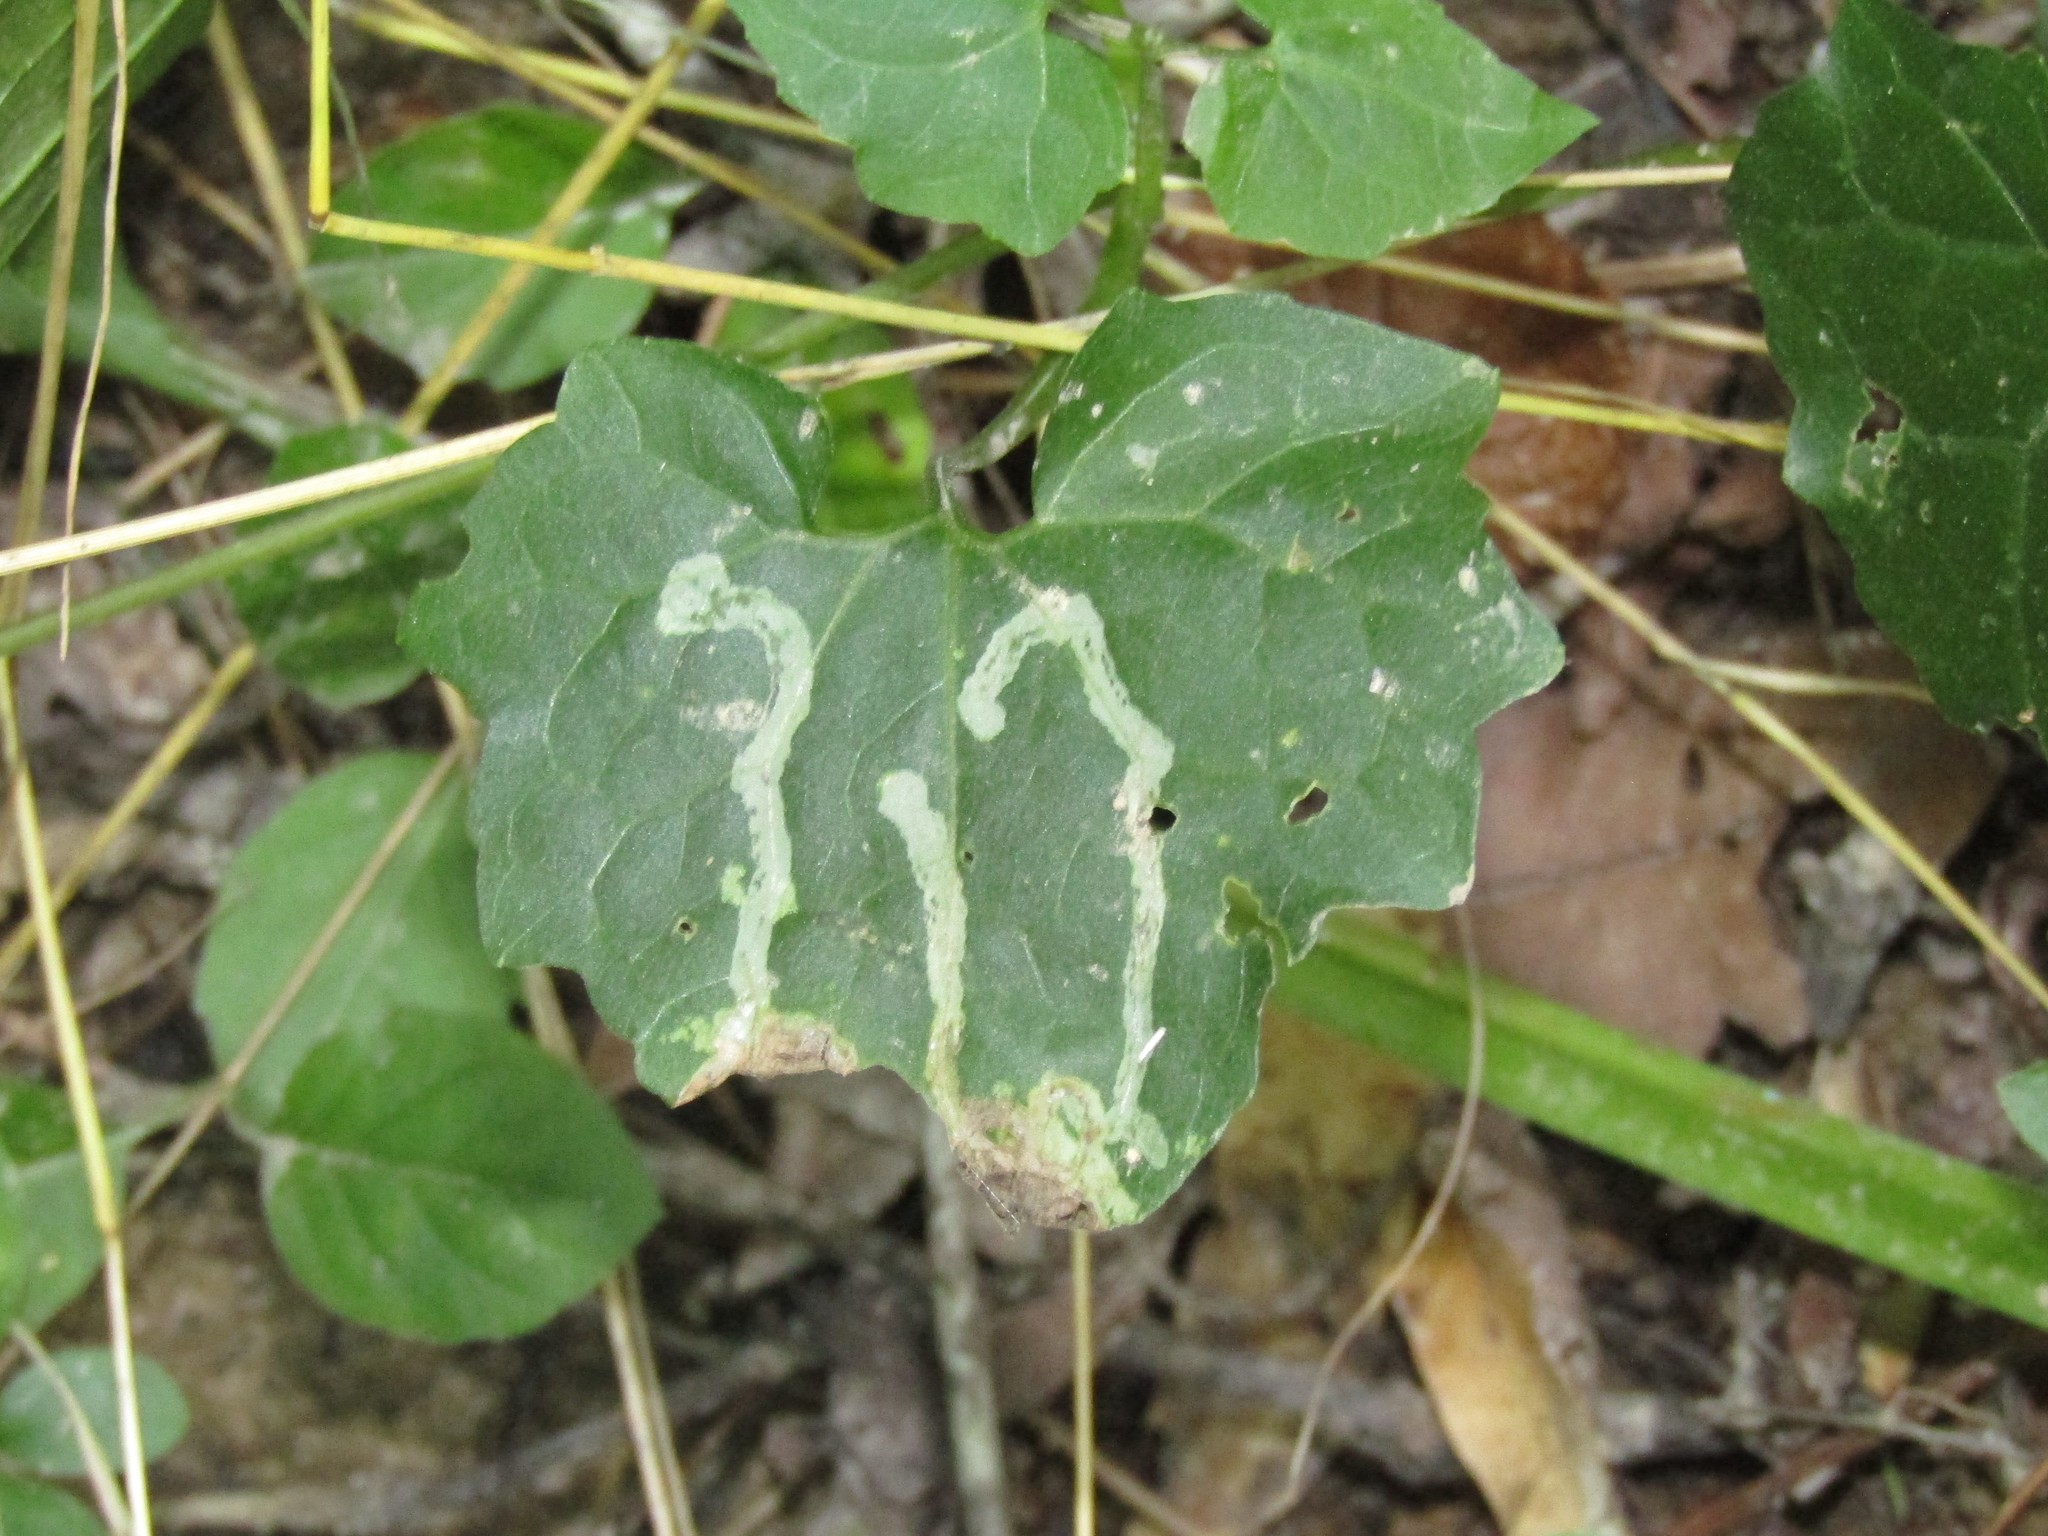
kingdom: Animalia
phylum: Arthropoda
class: Insecta
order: Diptera
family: Agromyzidae
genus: Liriomyza
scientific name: Liriomyza carphephori
